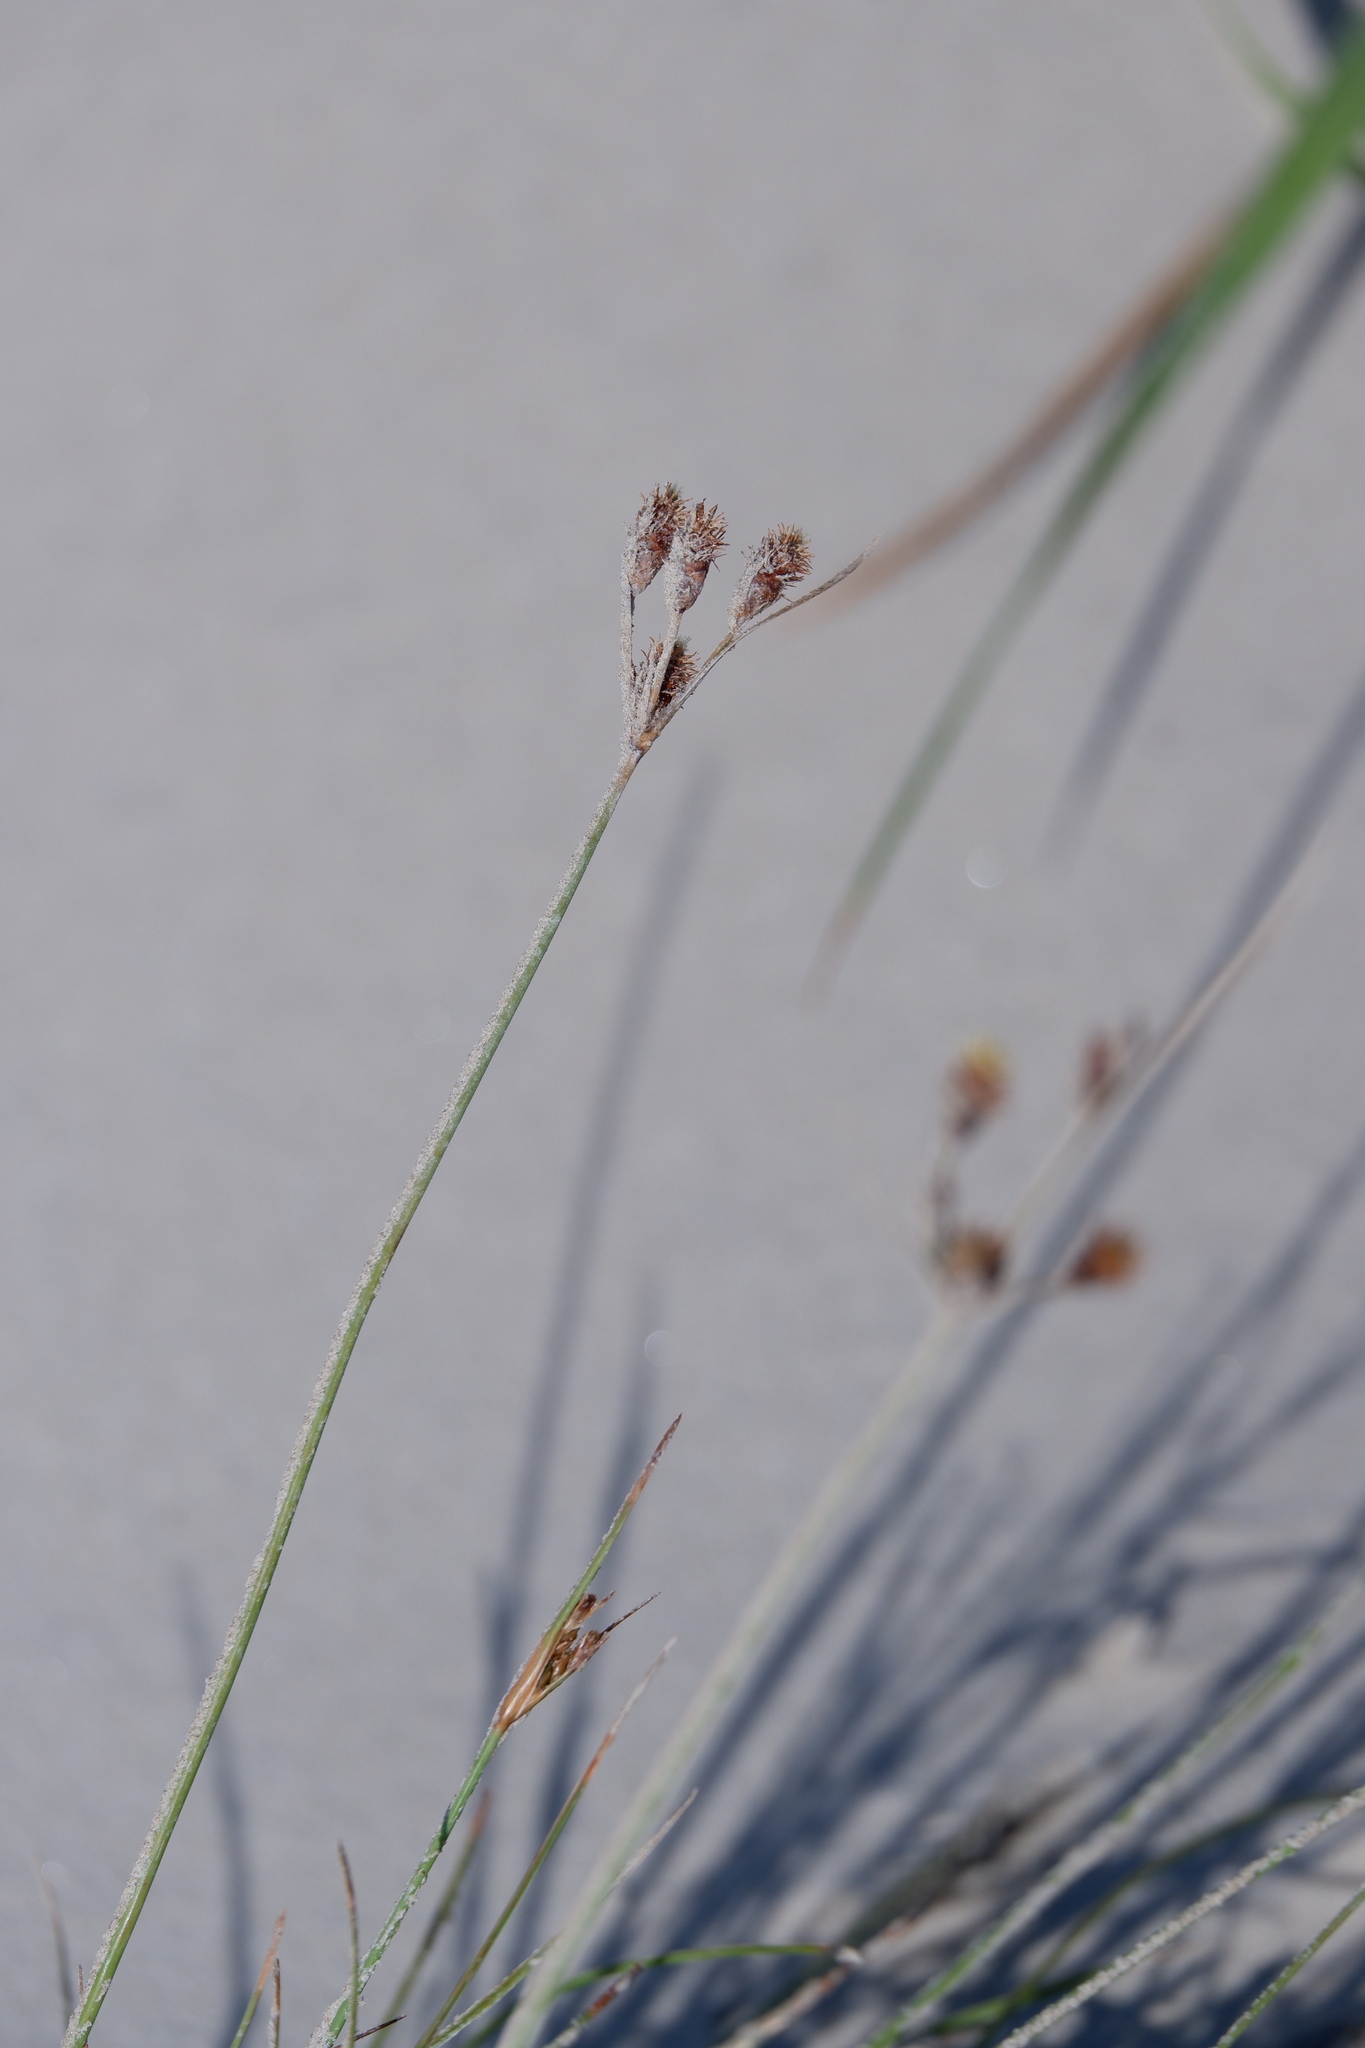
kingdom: Plantae
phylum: Tracheophyta
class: Liliopsida
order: Poales
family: Cyperaceae
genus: Fimbristylis
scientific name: Fimbristylis spadicea
